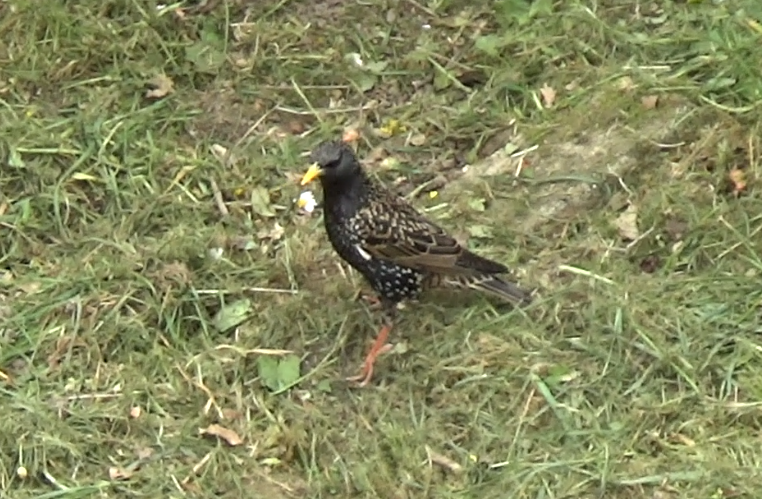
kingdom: Animalia
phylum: Chordata
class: Aves
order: Passeriformes
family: Sturnidae
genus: Sturnus
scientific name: Sturnus vulgaris
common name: Common starling
